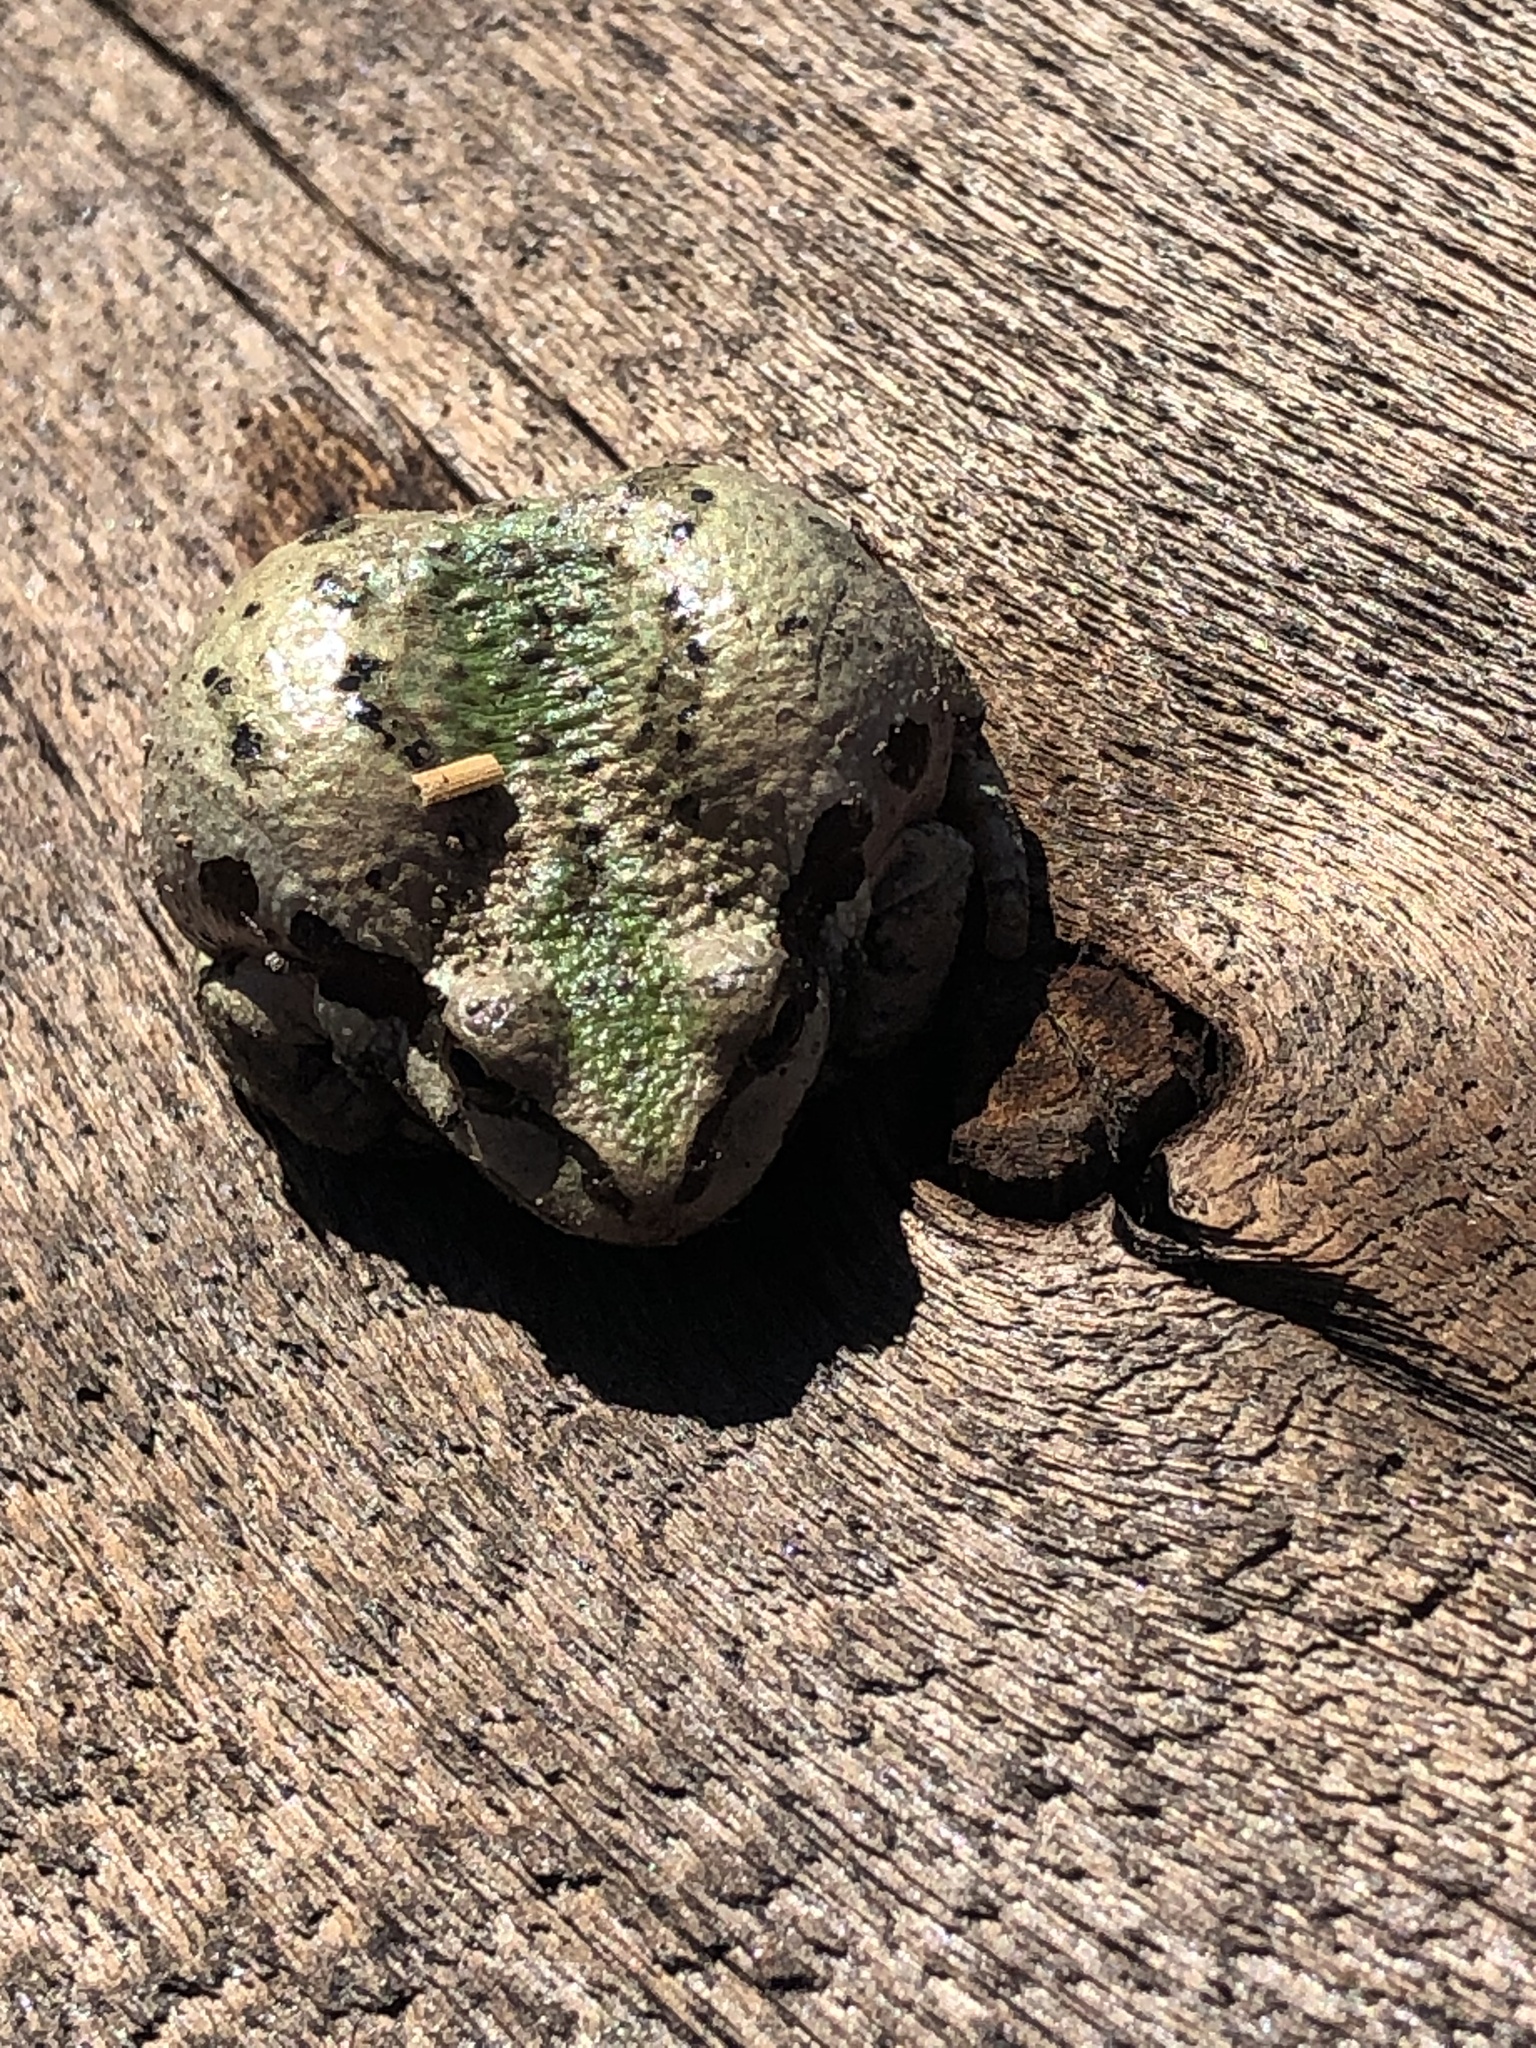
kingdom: Animalia
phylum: Chordata
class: Amphibia
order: Anura
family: Hylidae
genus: Pseudacris
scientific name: Pseudacris regilla
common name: Pacific chorus frog
